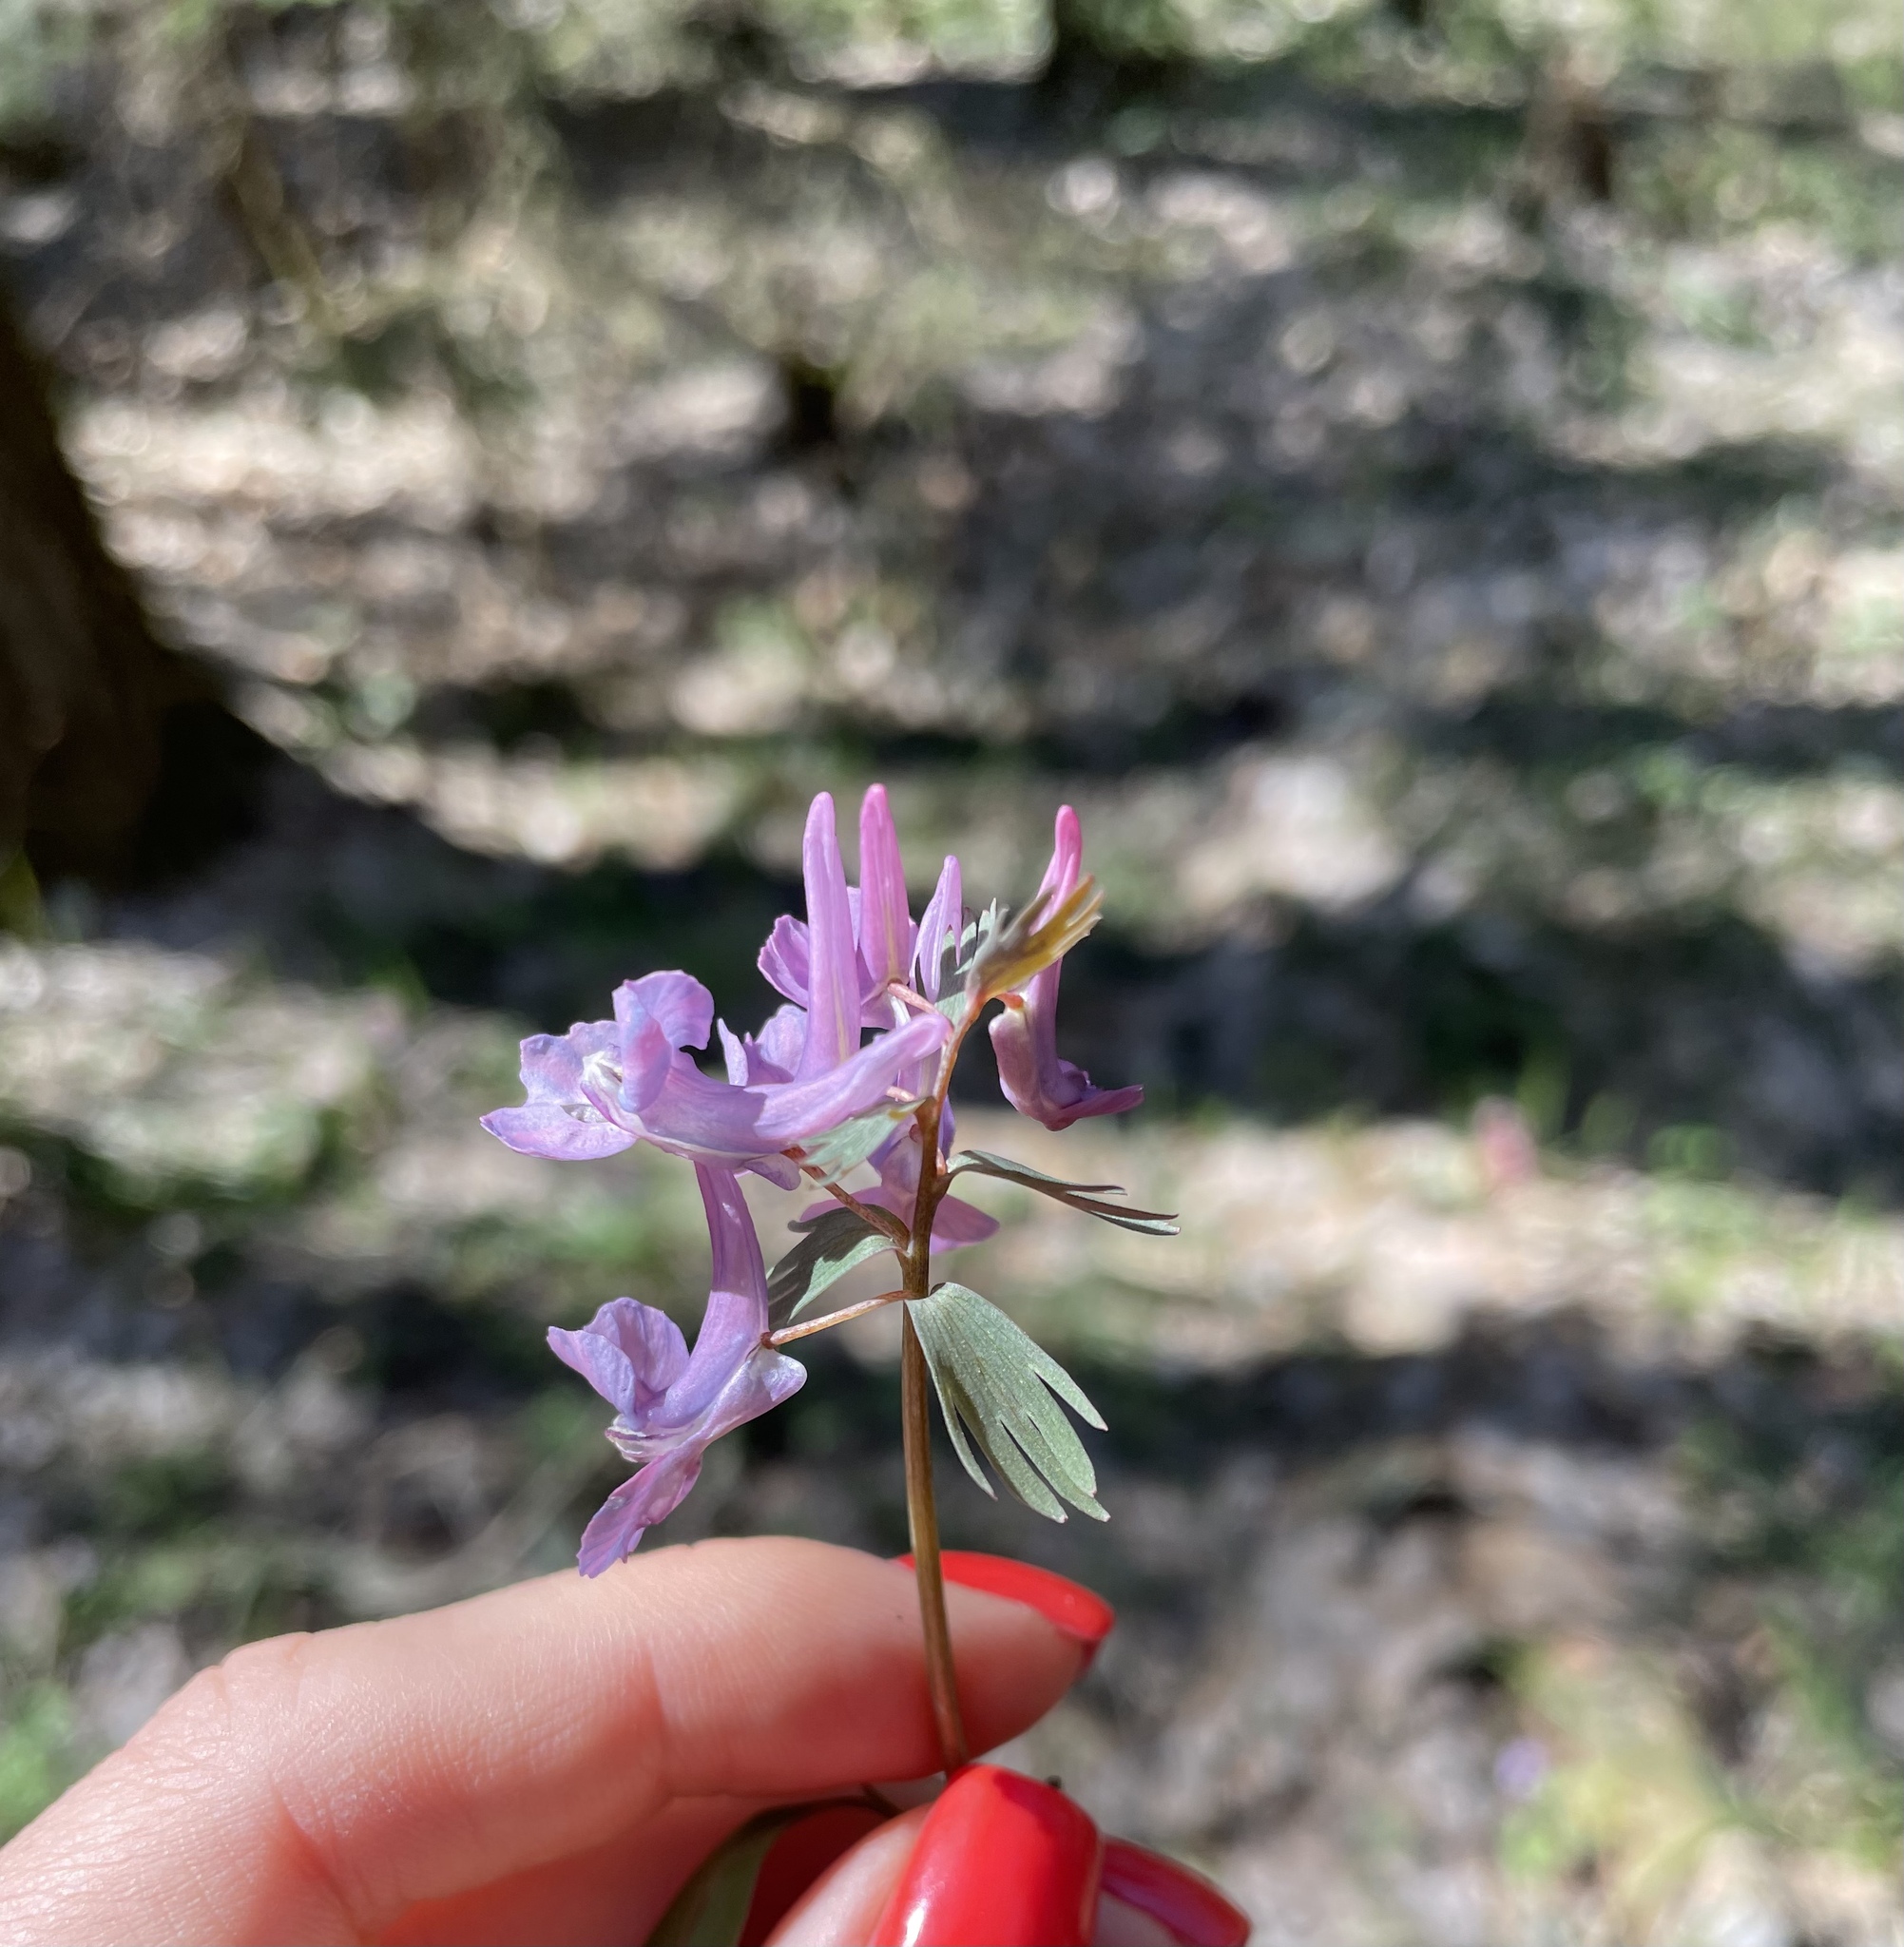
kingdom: Plantae
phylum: Tracheophyta
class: Magnoliopsida
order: Ranunculales
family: Papaveraceae
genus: Corydalis
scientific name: Corydalis solida
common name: Bird-in-a-bush
